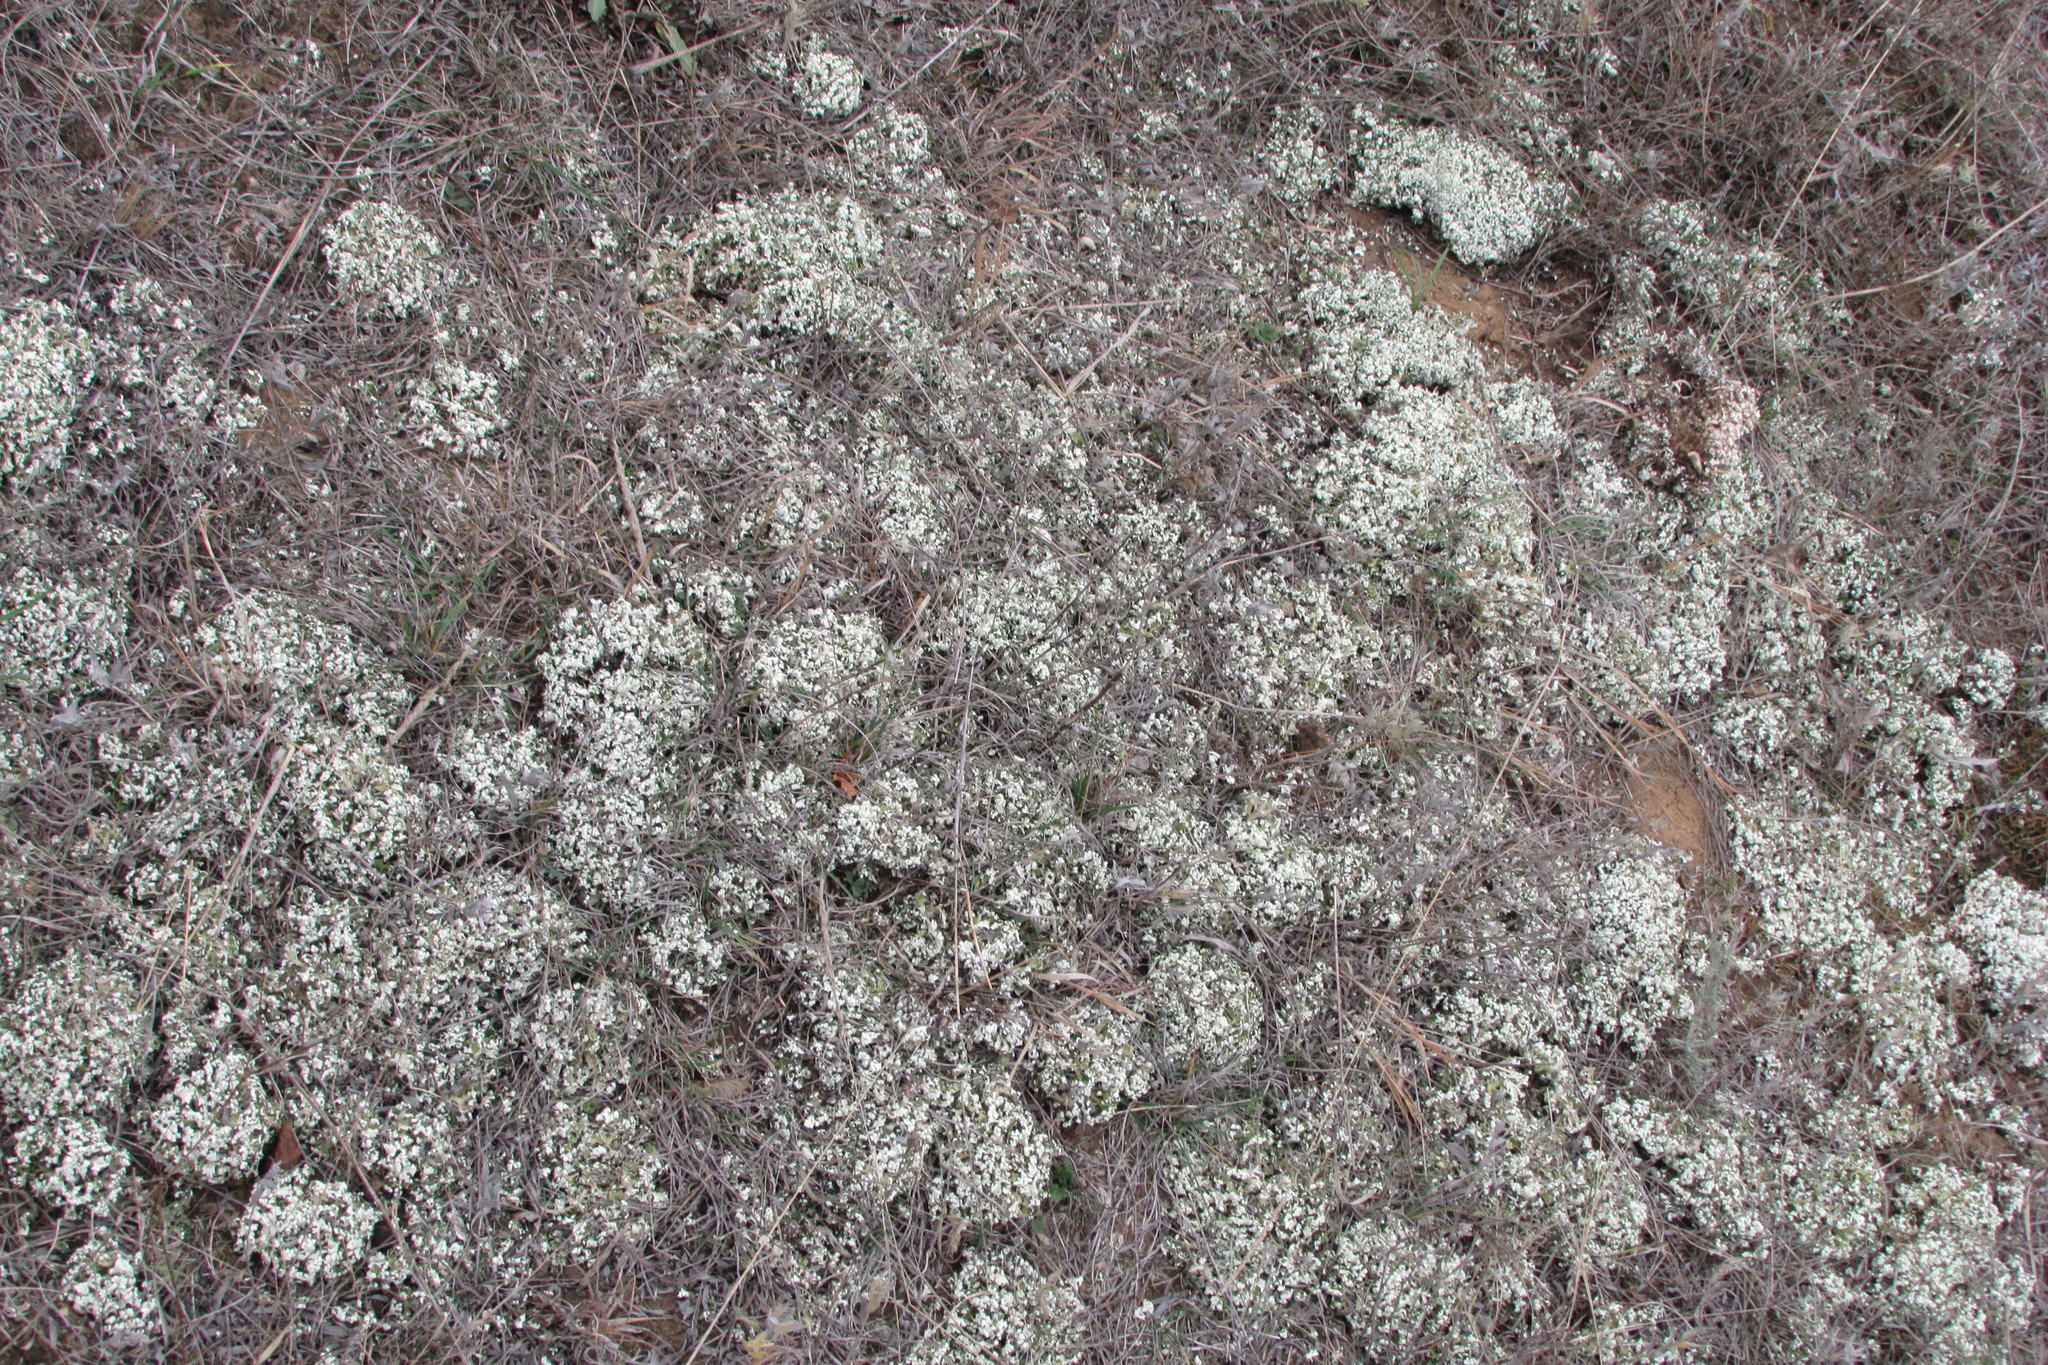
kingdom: Fungi
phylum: Ascomycota
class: Lecanoromycetes
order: Lecanorales
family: Cladoniaceae
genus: Cladonia
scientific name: Cladonia foliacea
